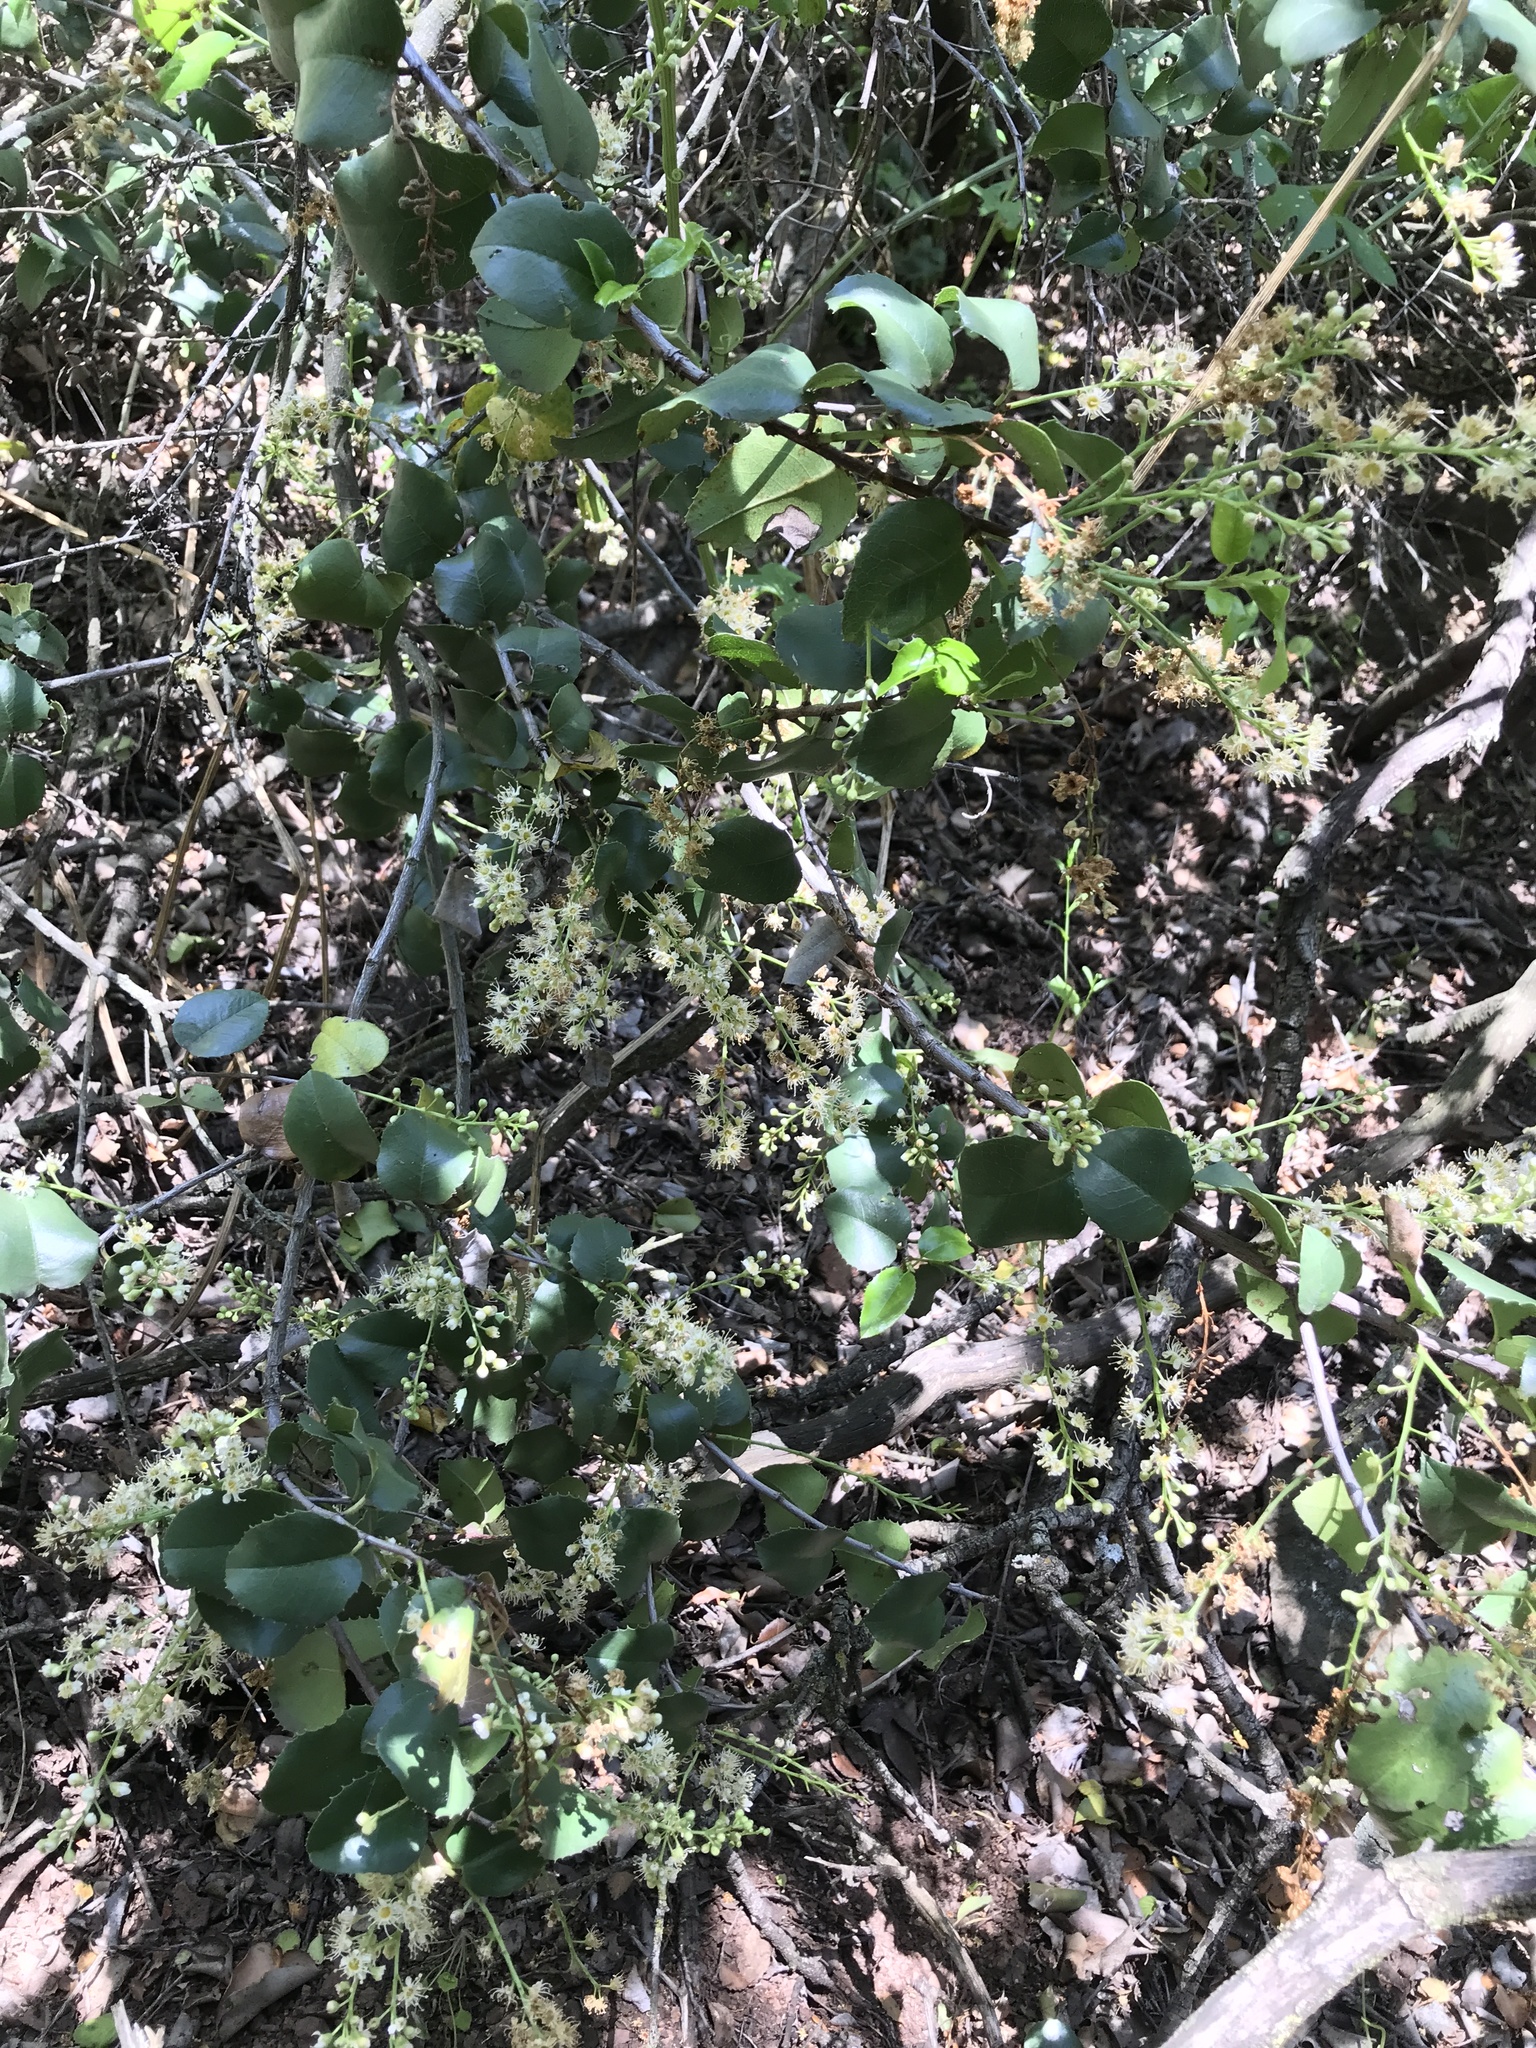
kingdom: Plantae
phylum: Tracheophyta
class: Magnoliopsida
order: Rosales
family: Rosaceae
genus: Prunus
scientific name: Prunus ilicifolia
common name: Hollyleaf cherry
